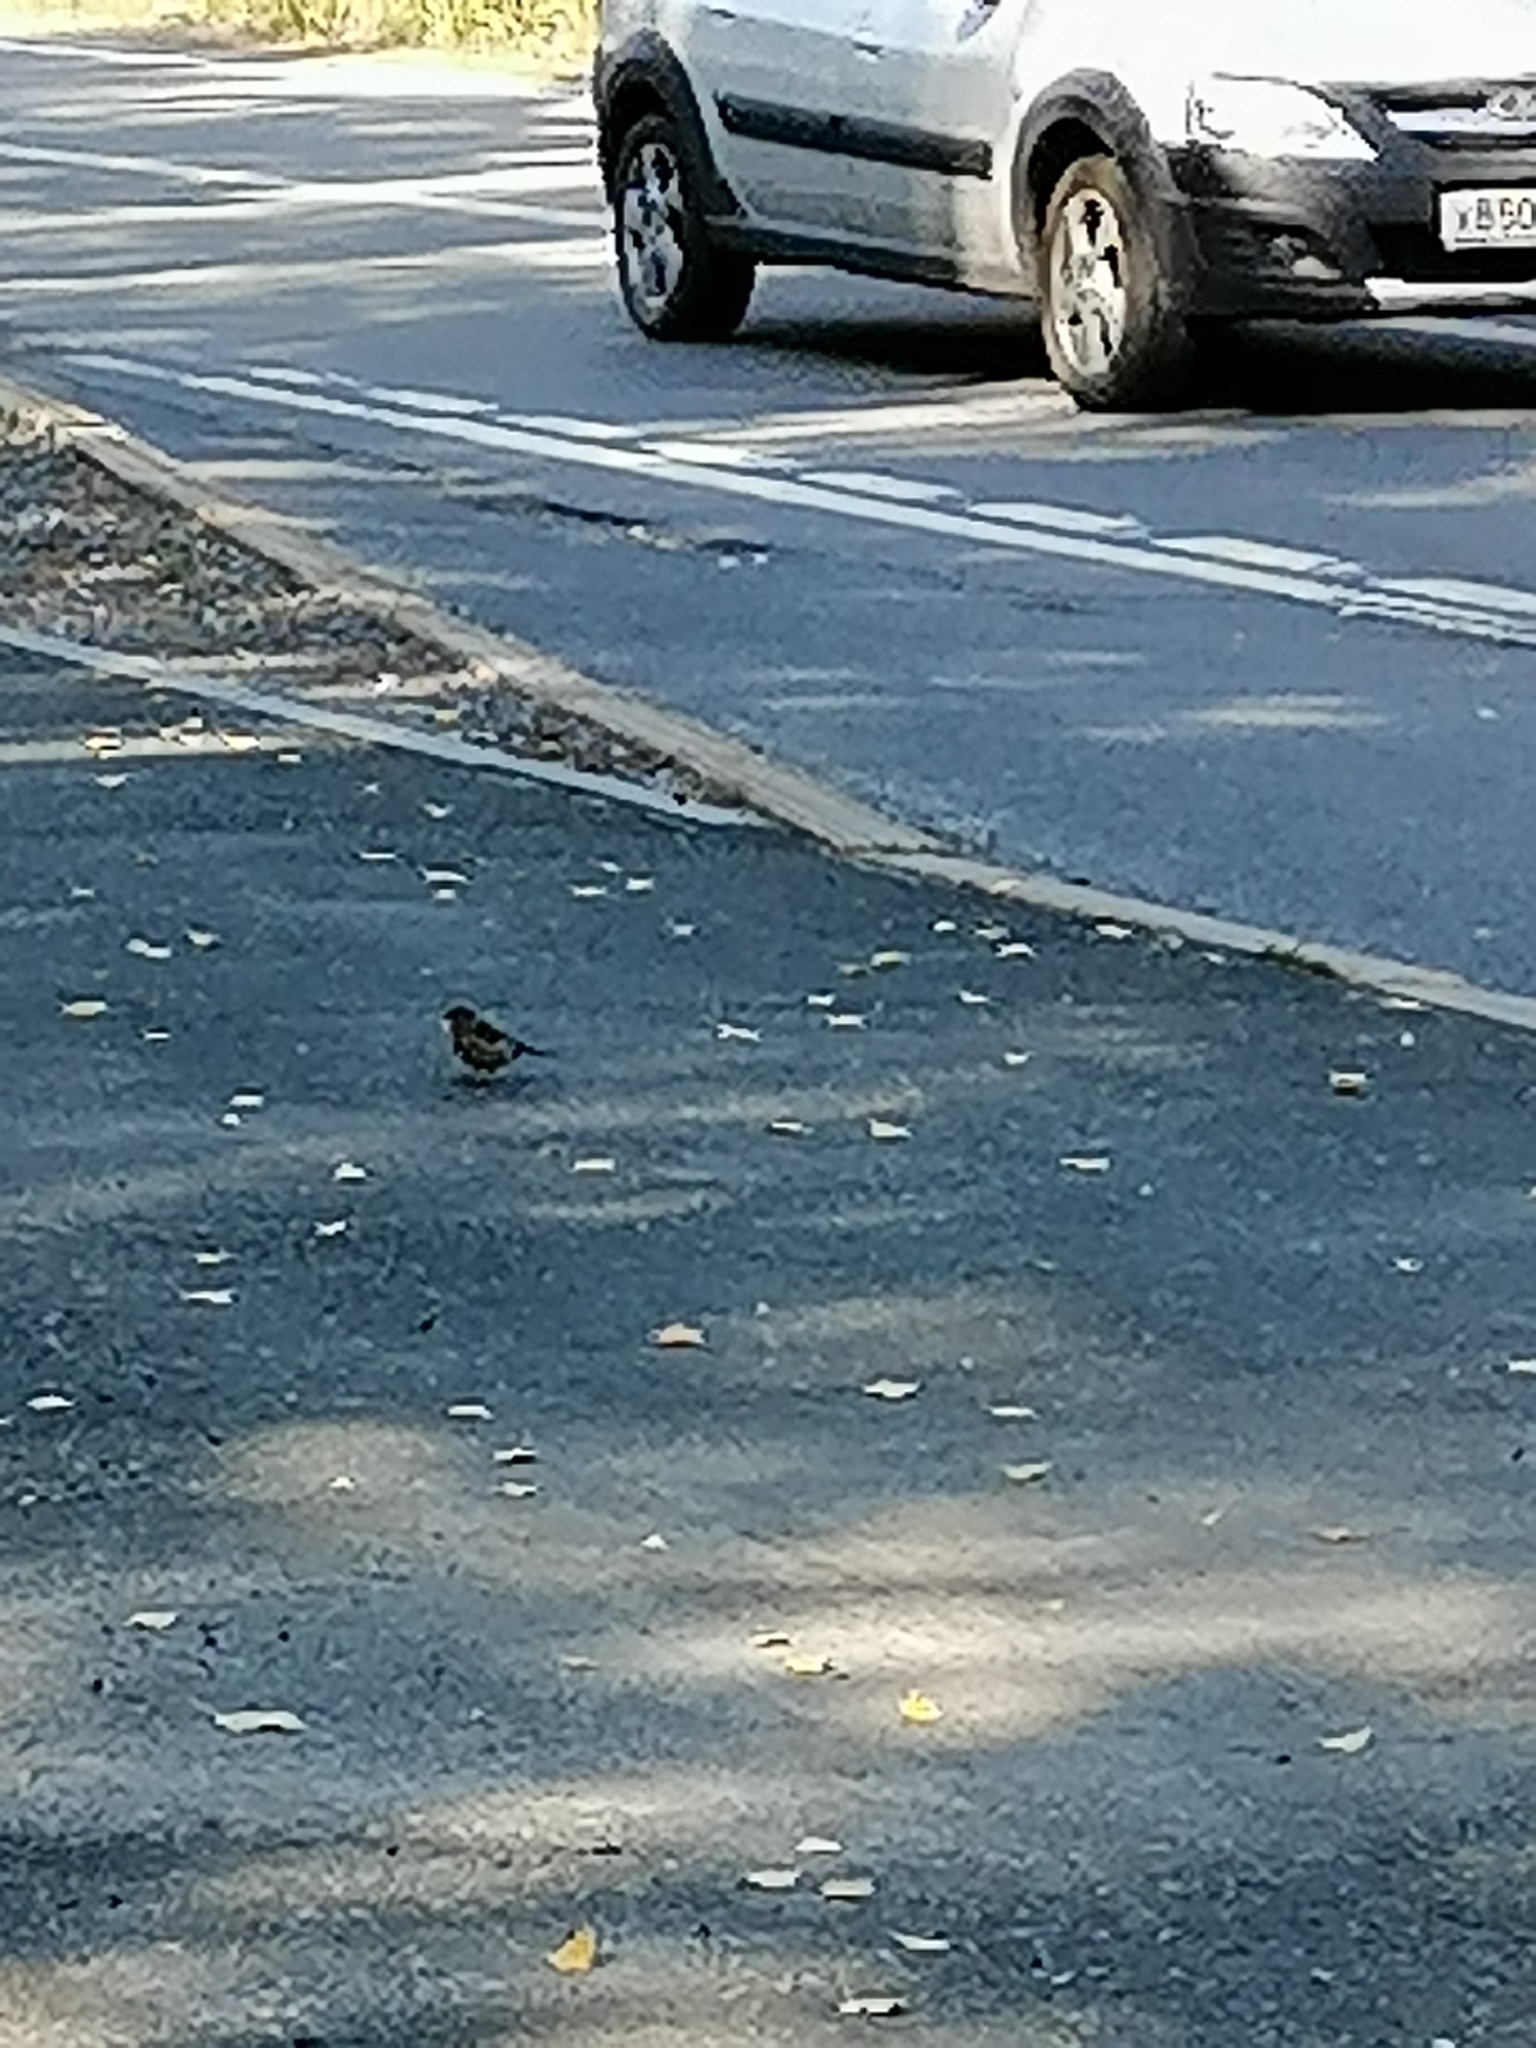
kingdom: Animalia
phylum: Chordata
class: Aves
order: Passeriformes
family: Fringillidae
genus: Fringilla
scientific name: Fringilla coelebs
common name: Common chaffinch
